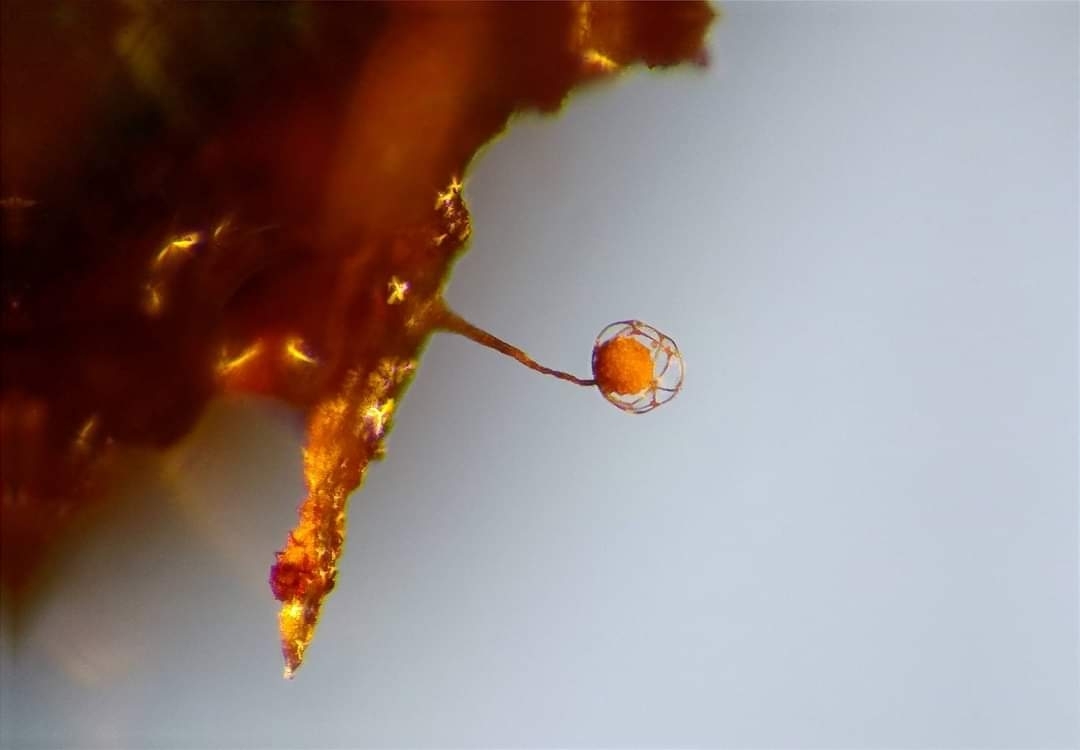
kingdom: Protozoa
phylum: Mycetozoa
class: Myxomycetes
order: Cribrariales
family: Cribrariaceae
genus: Cribraria
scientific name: Cribraria confusa
